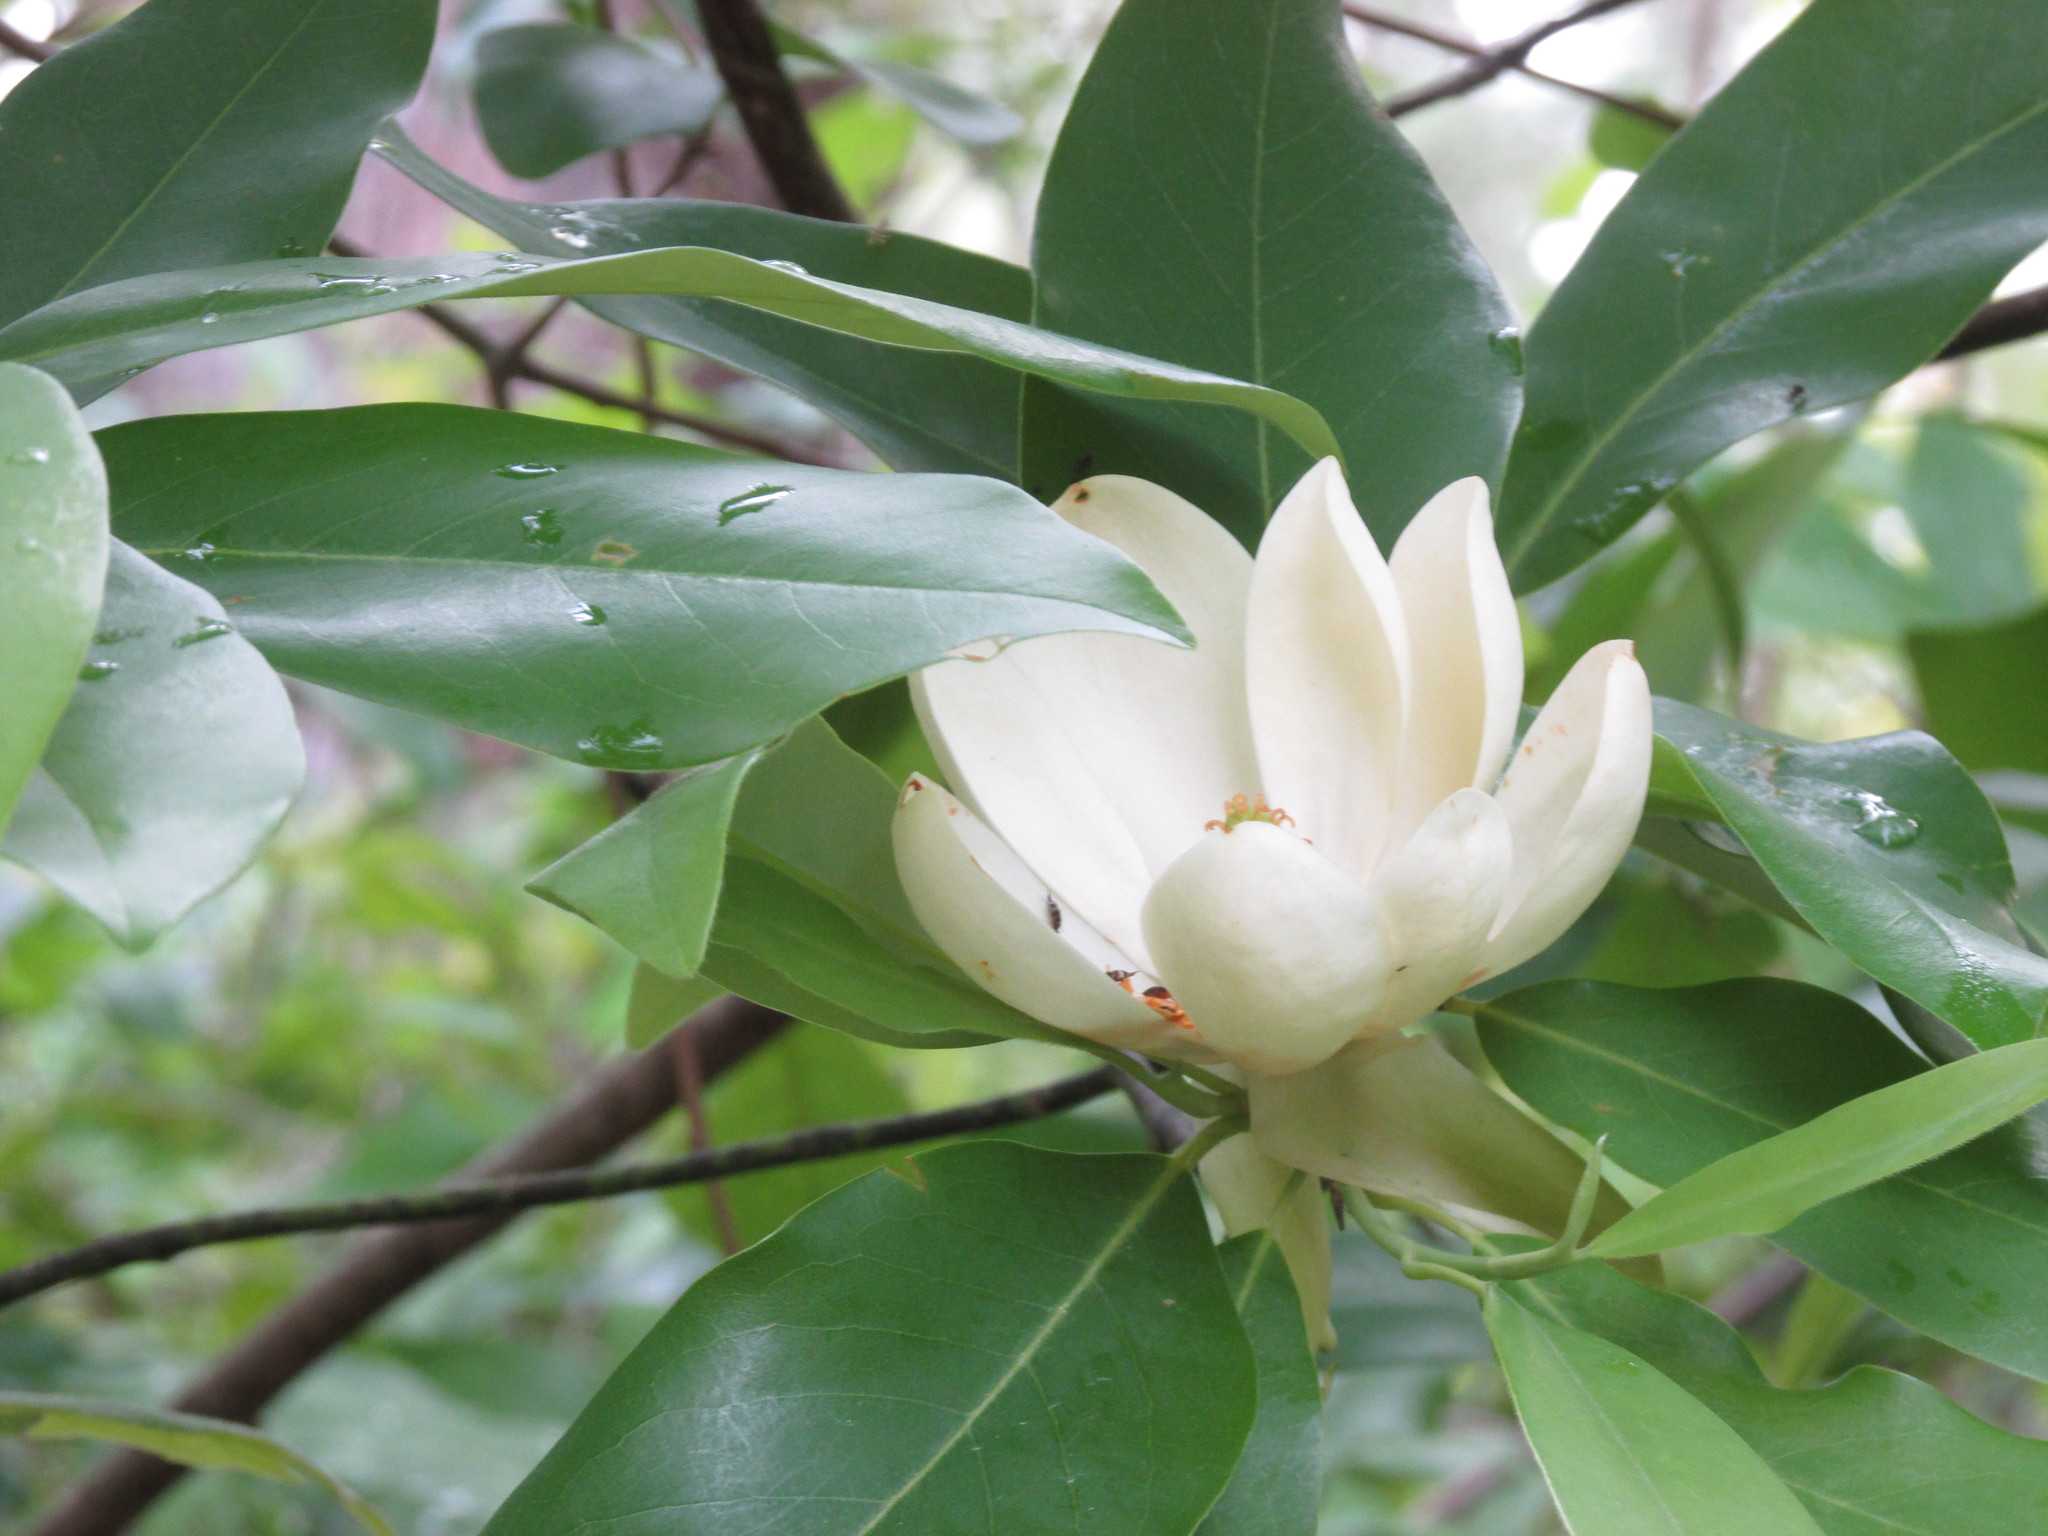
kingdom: Plantae
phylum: Tracheophyta
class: Magnoliopsida
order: Magnoliales
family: Magnoliaceae
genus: Magnolia
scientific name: Magnolia virginiana
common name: Swamp bay
